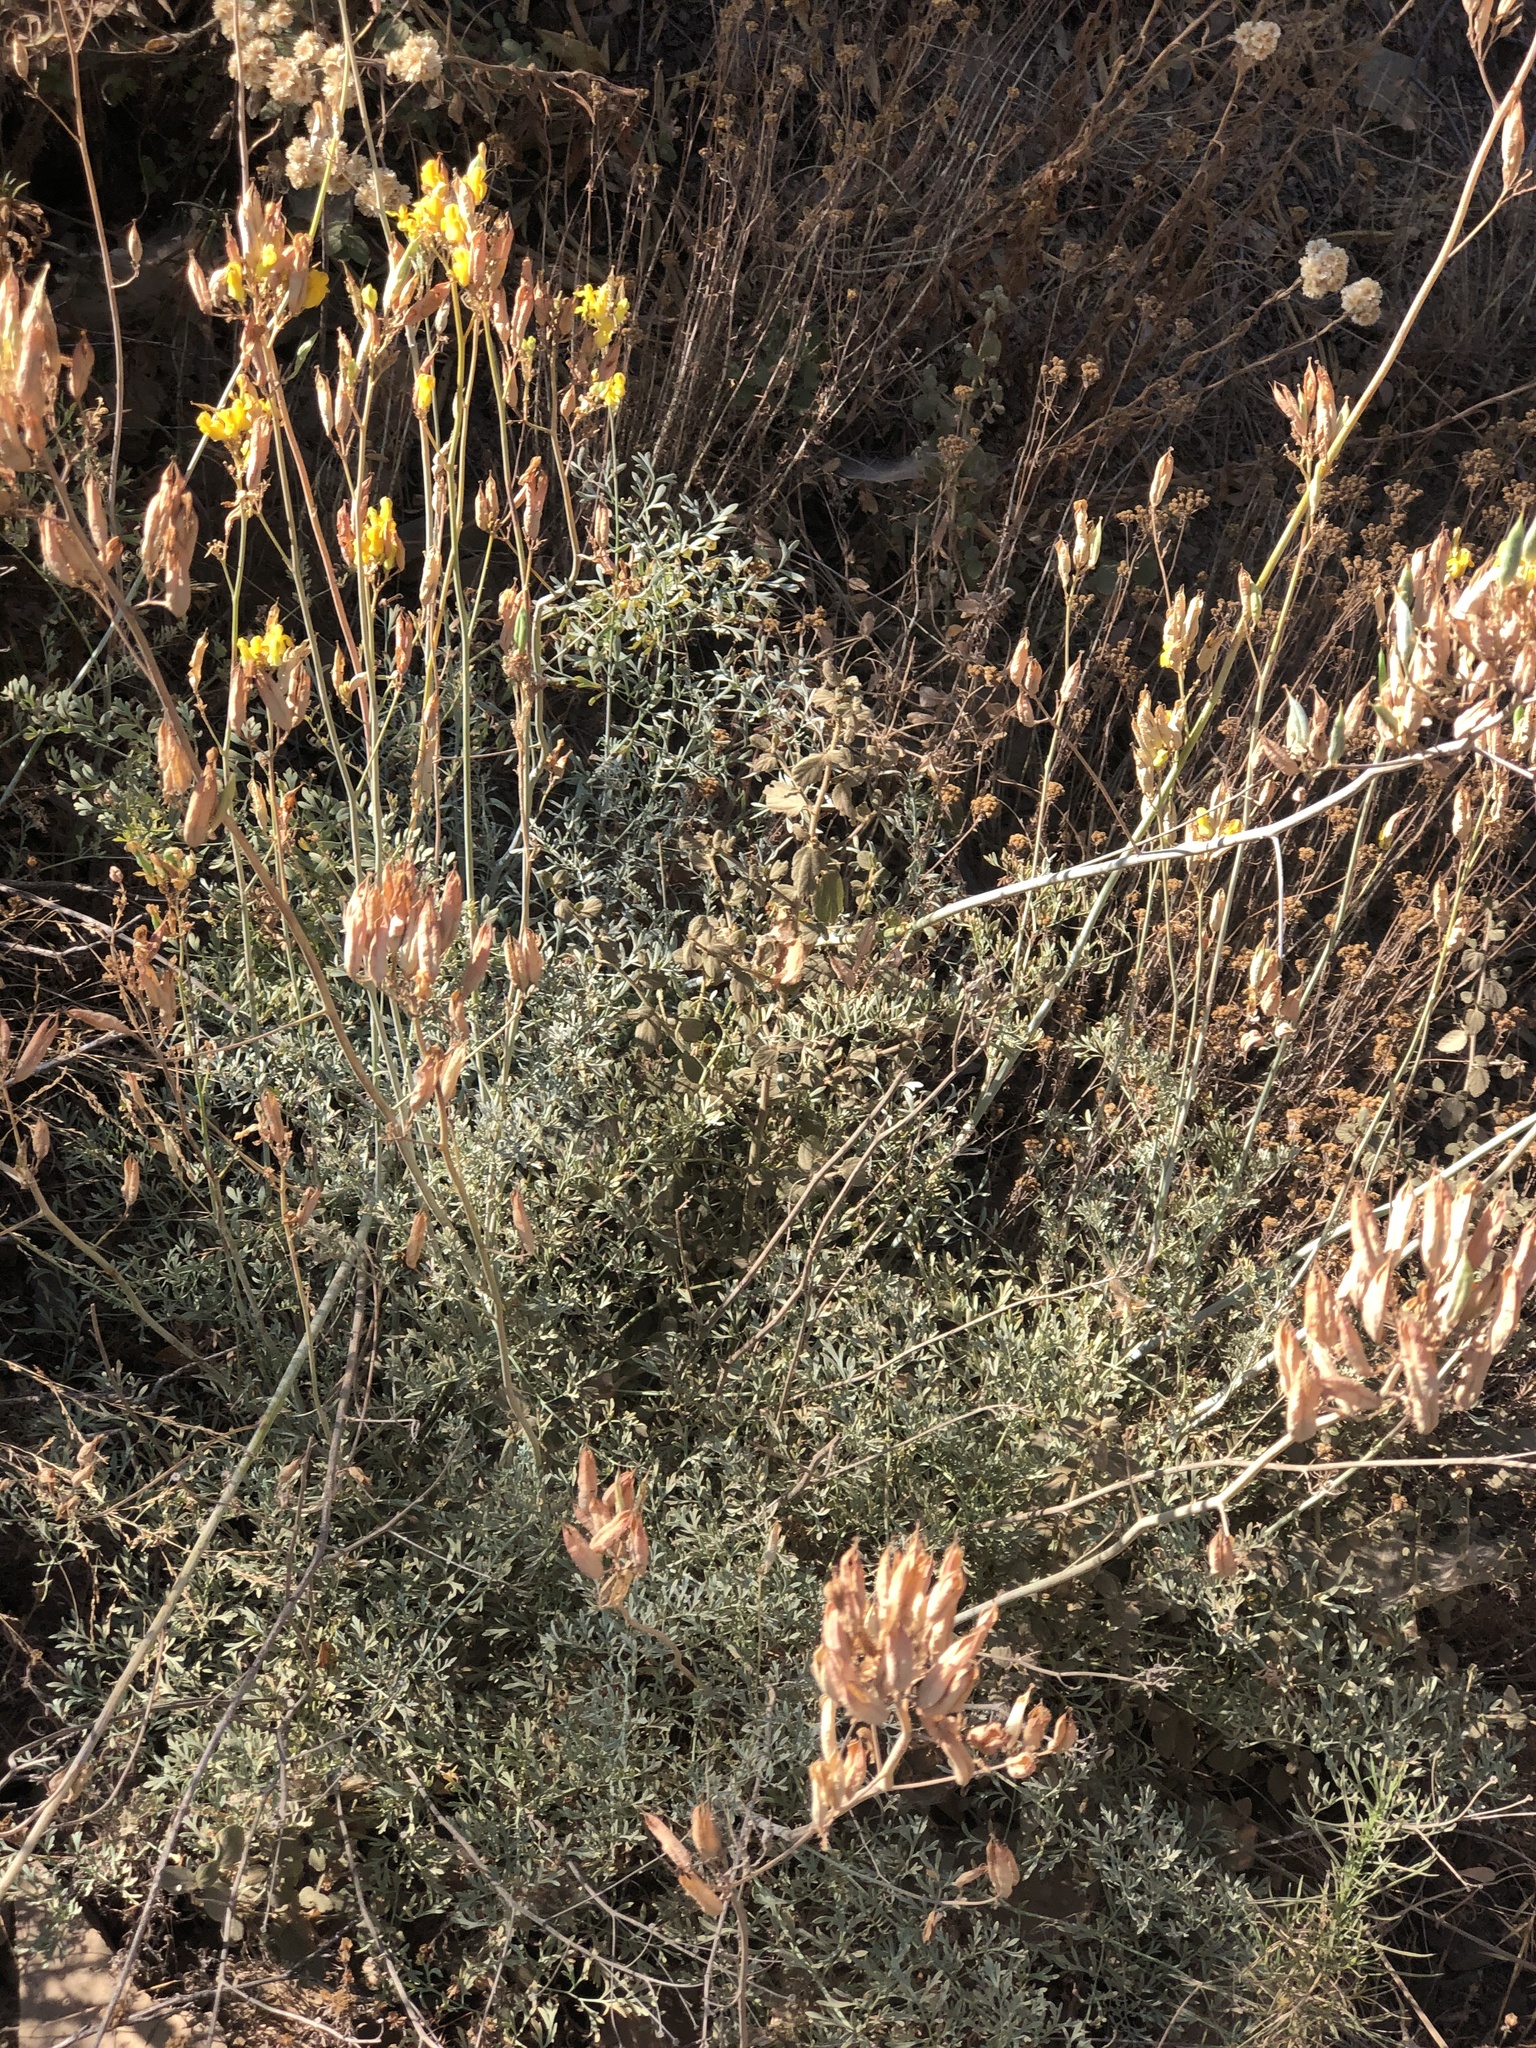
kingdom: Plantae
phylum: Tracheophyta
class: Magnoliopsida
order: Ranunculales
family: Papaveraceae
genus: Ehrendorferia
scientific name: Ehrendorferia chrysantha
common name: Golden eardrops
